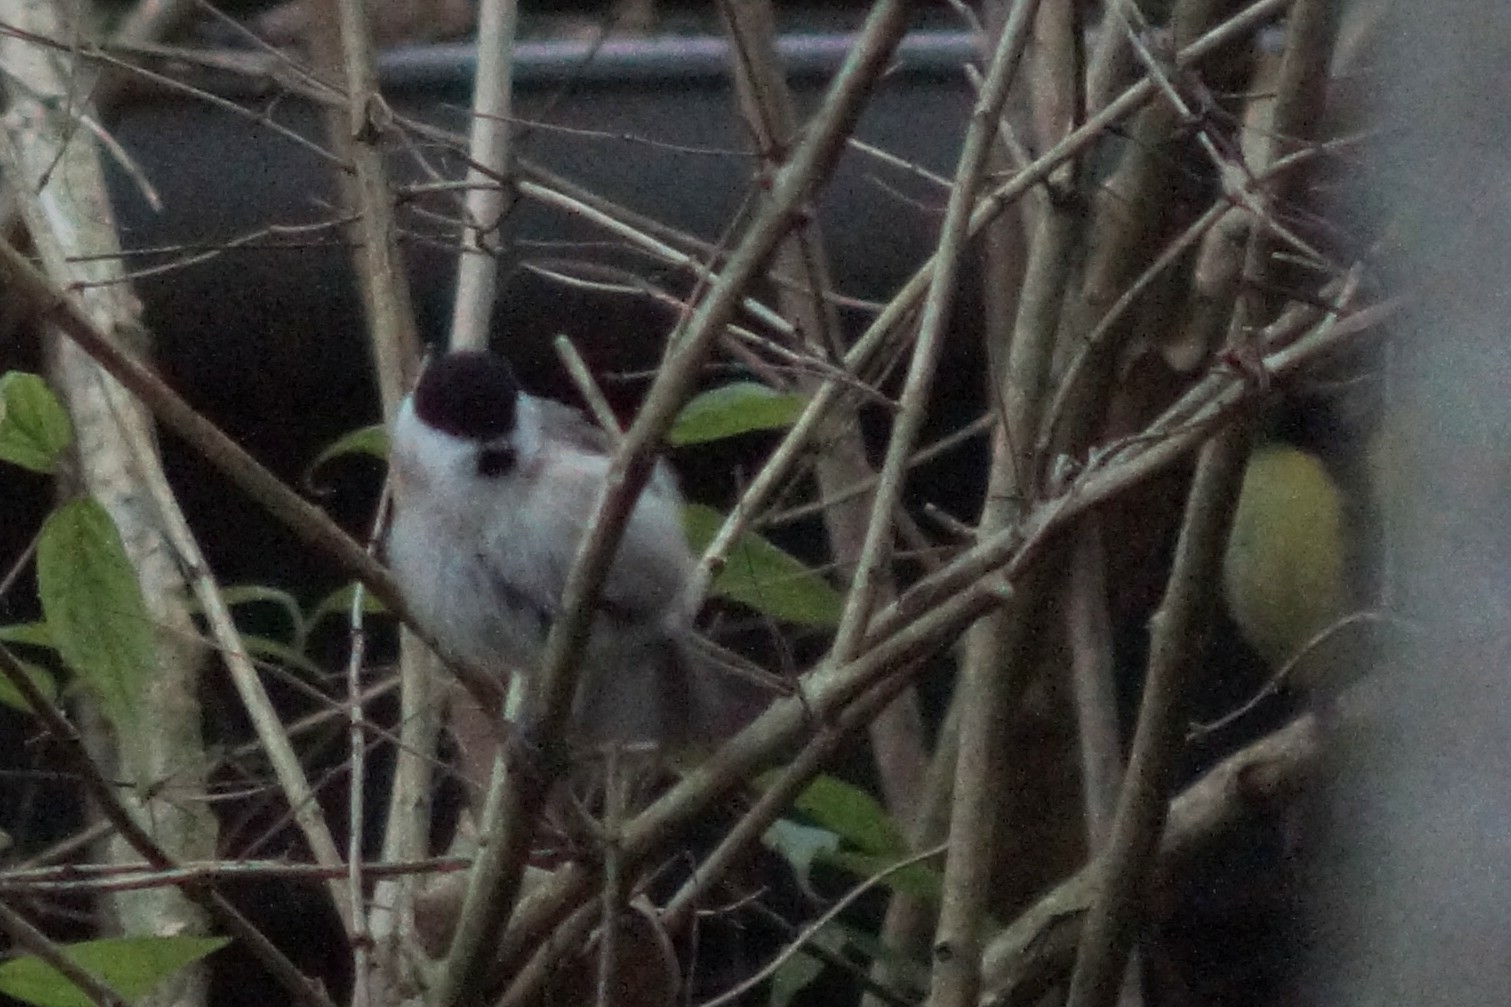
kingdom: Animalia
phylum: Chordata
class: Aves
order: Passeriformes
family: Paridae
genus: Poecile
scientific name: Poecile palustris
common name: Marsh tit
